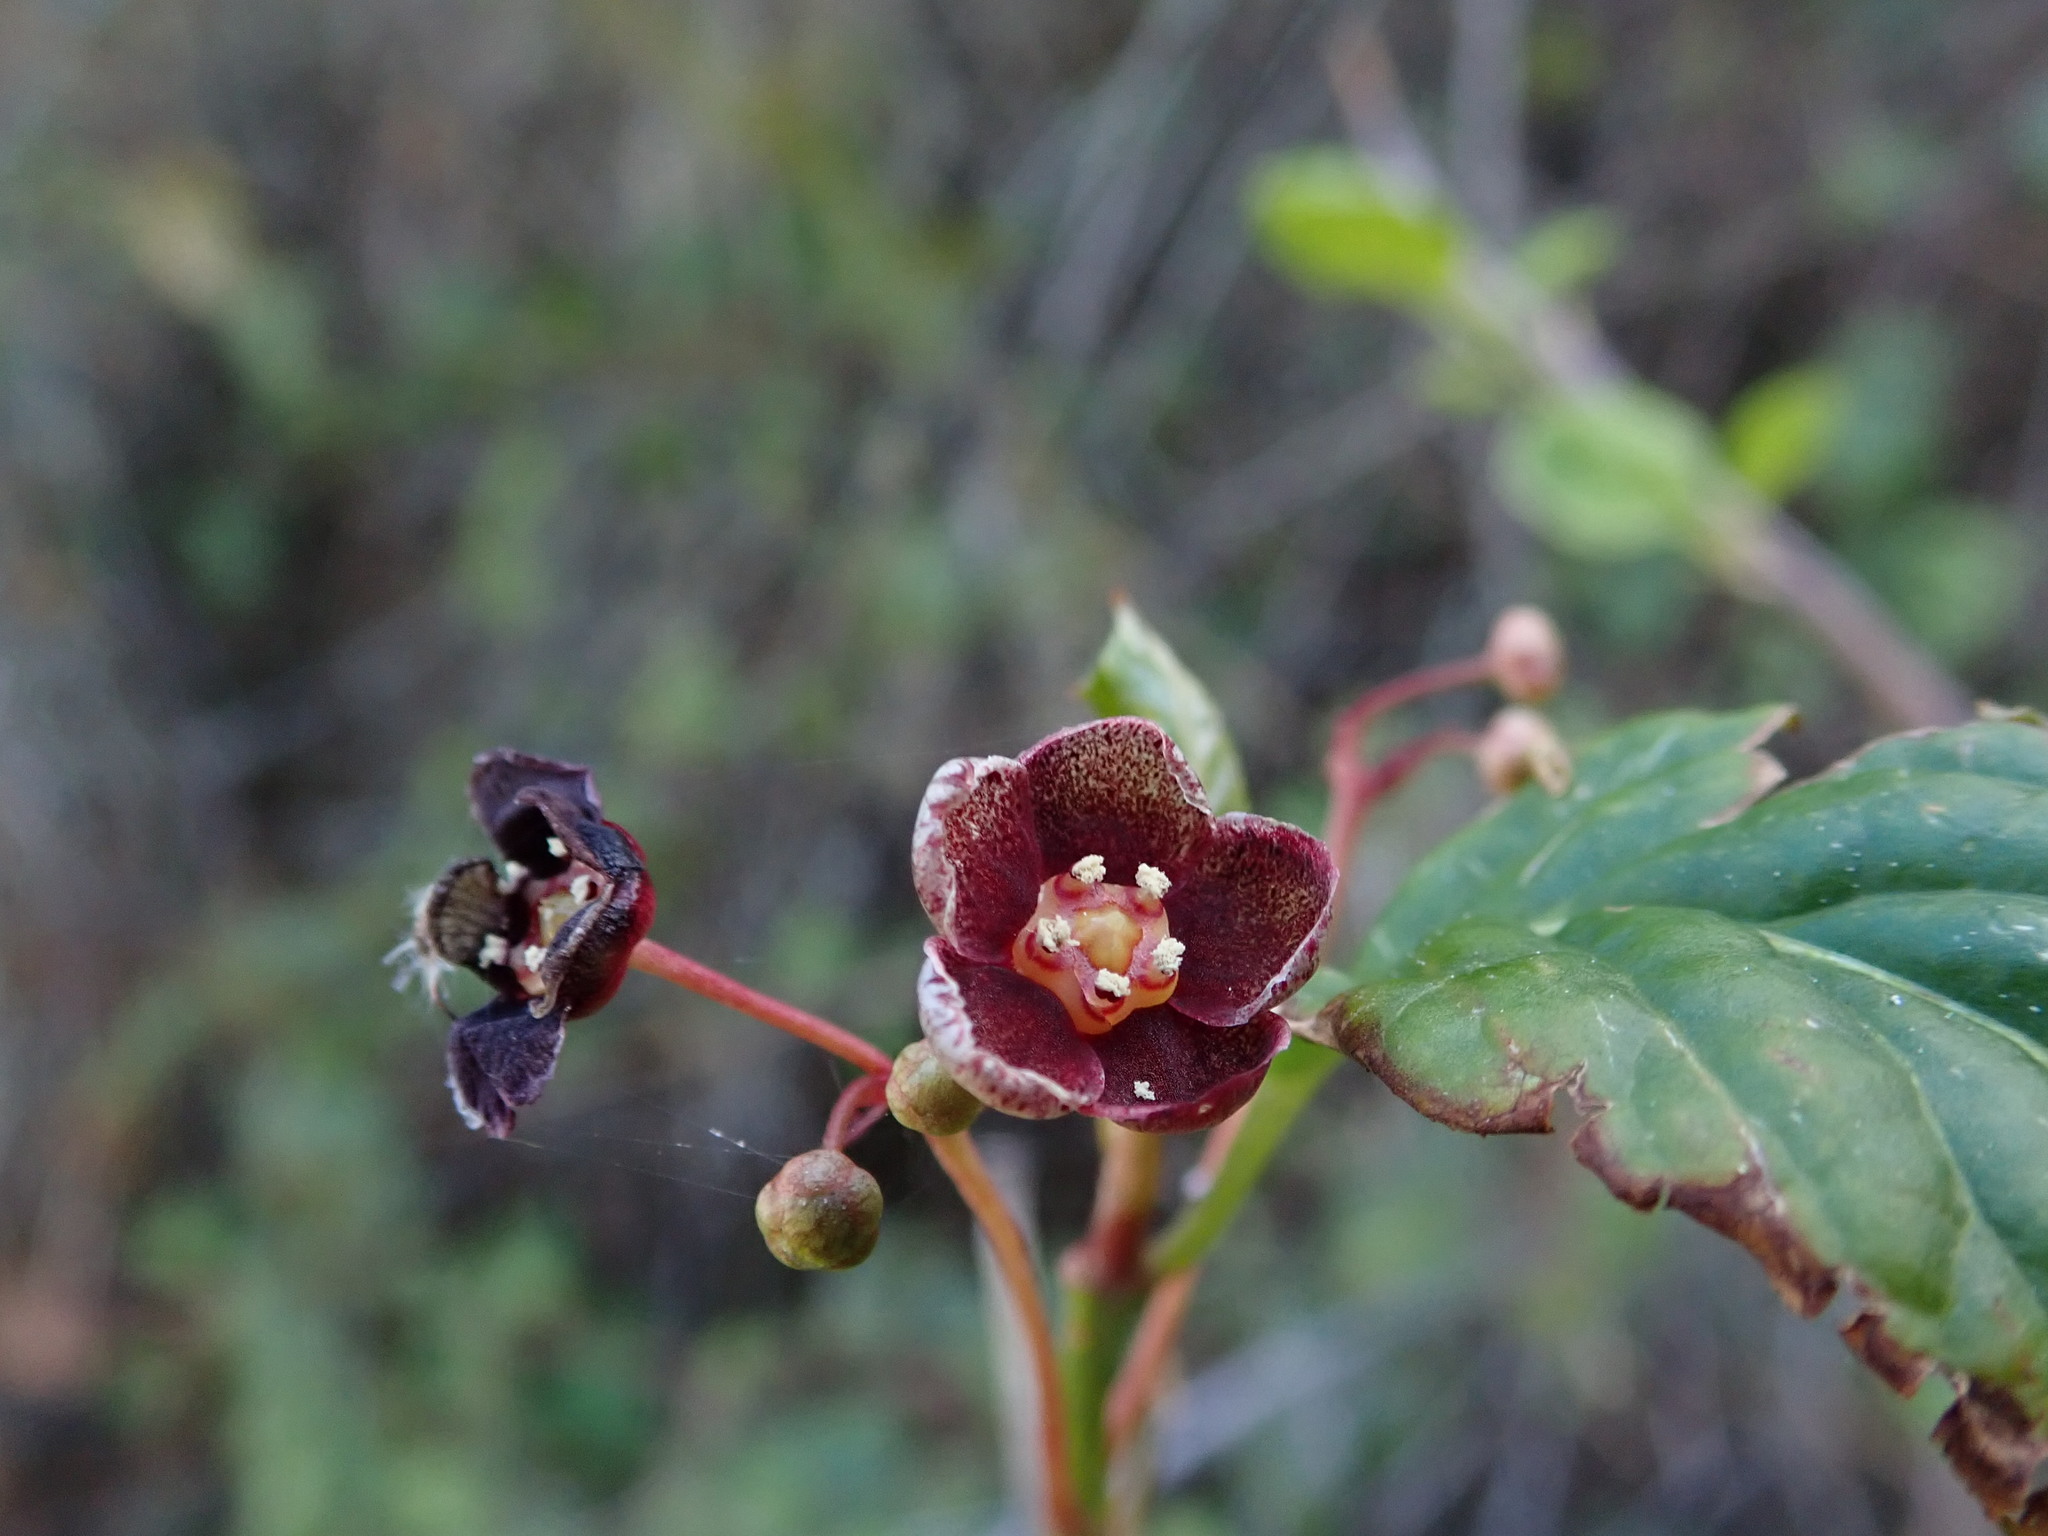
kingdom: Plantae
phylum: Tracheophyta
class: Magnoliopsida
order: Celastrales
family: Celastraceae
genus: Euonymus
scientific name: Euonymus occidentalis
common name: Western burningbush
